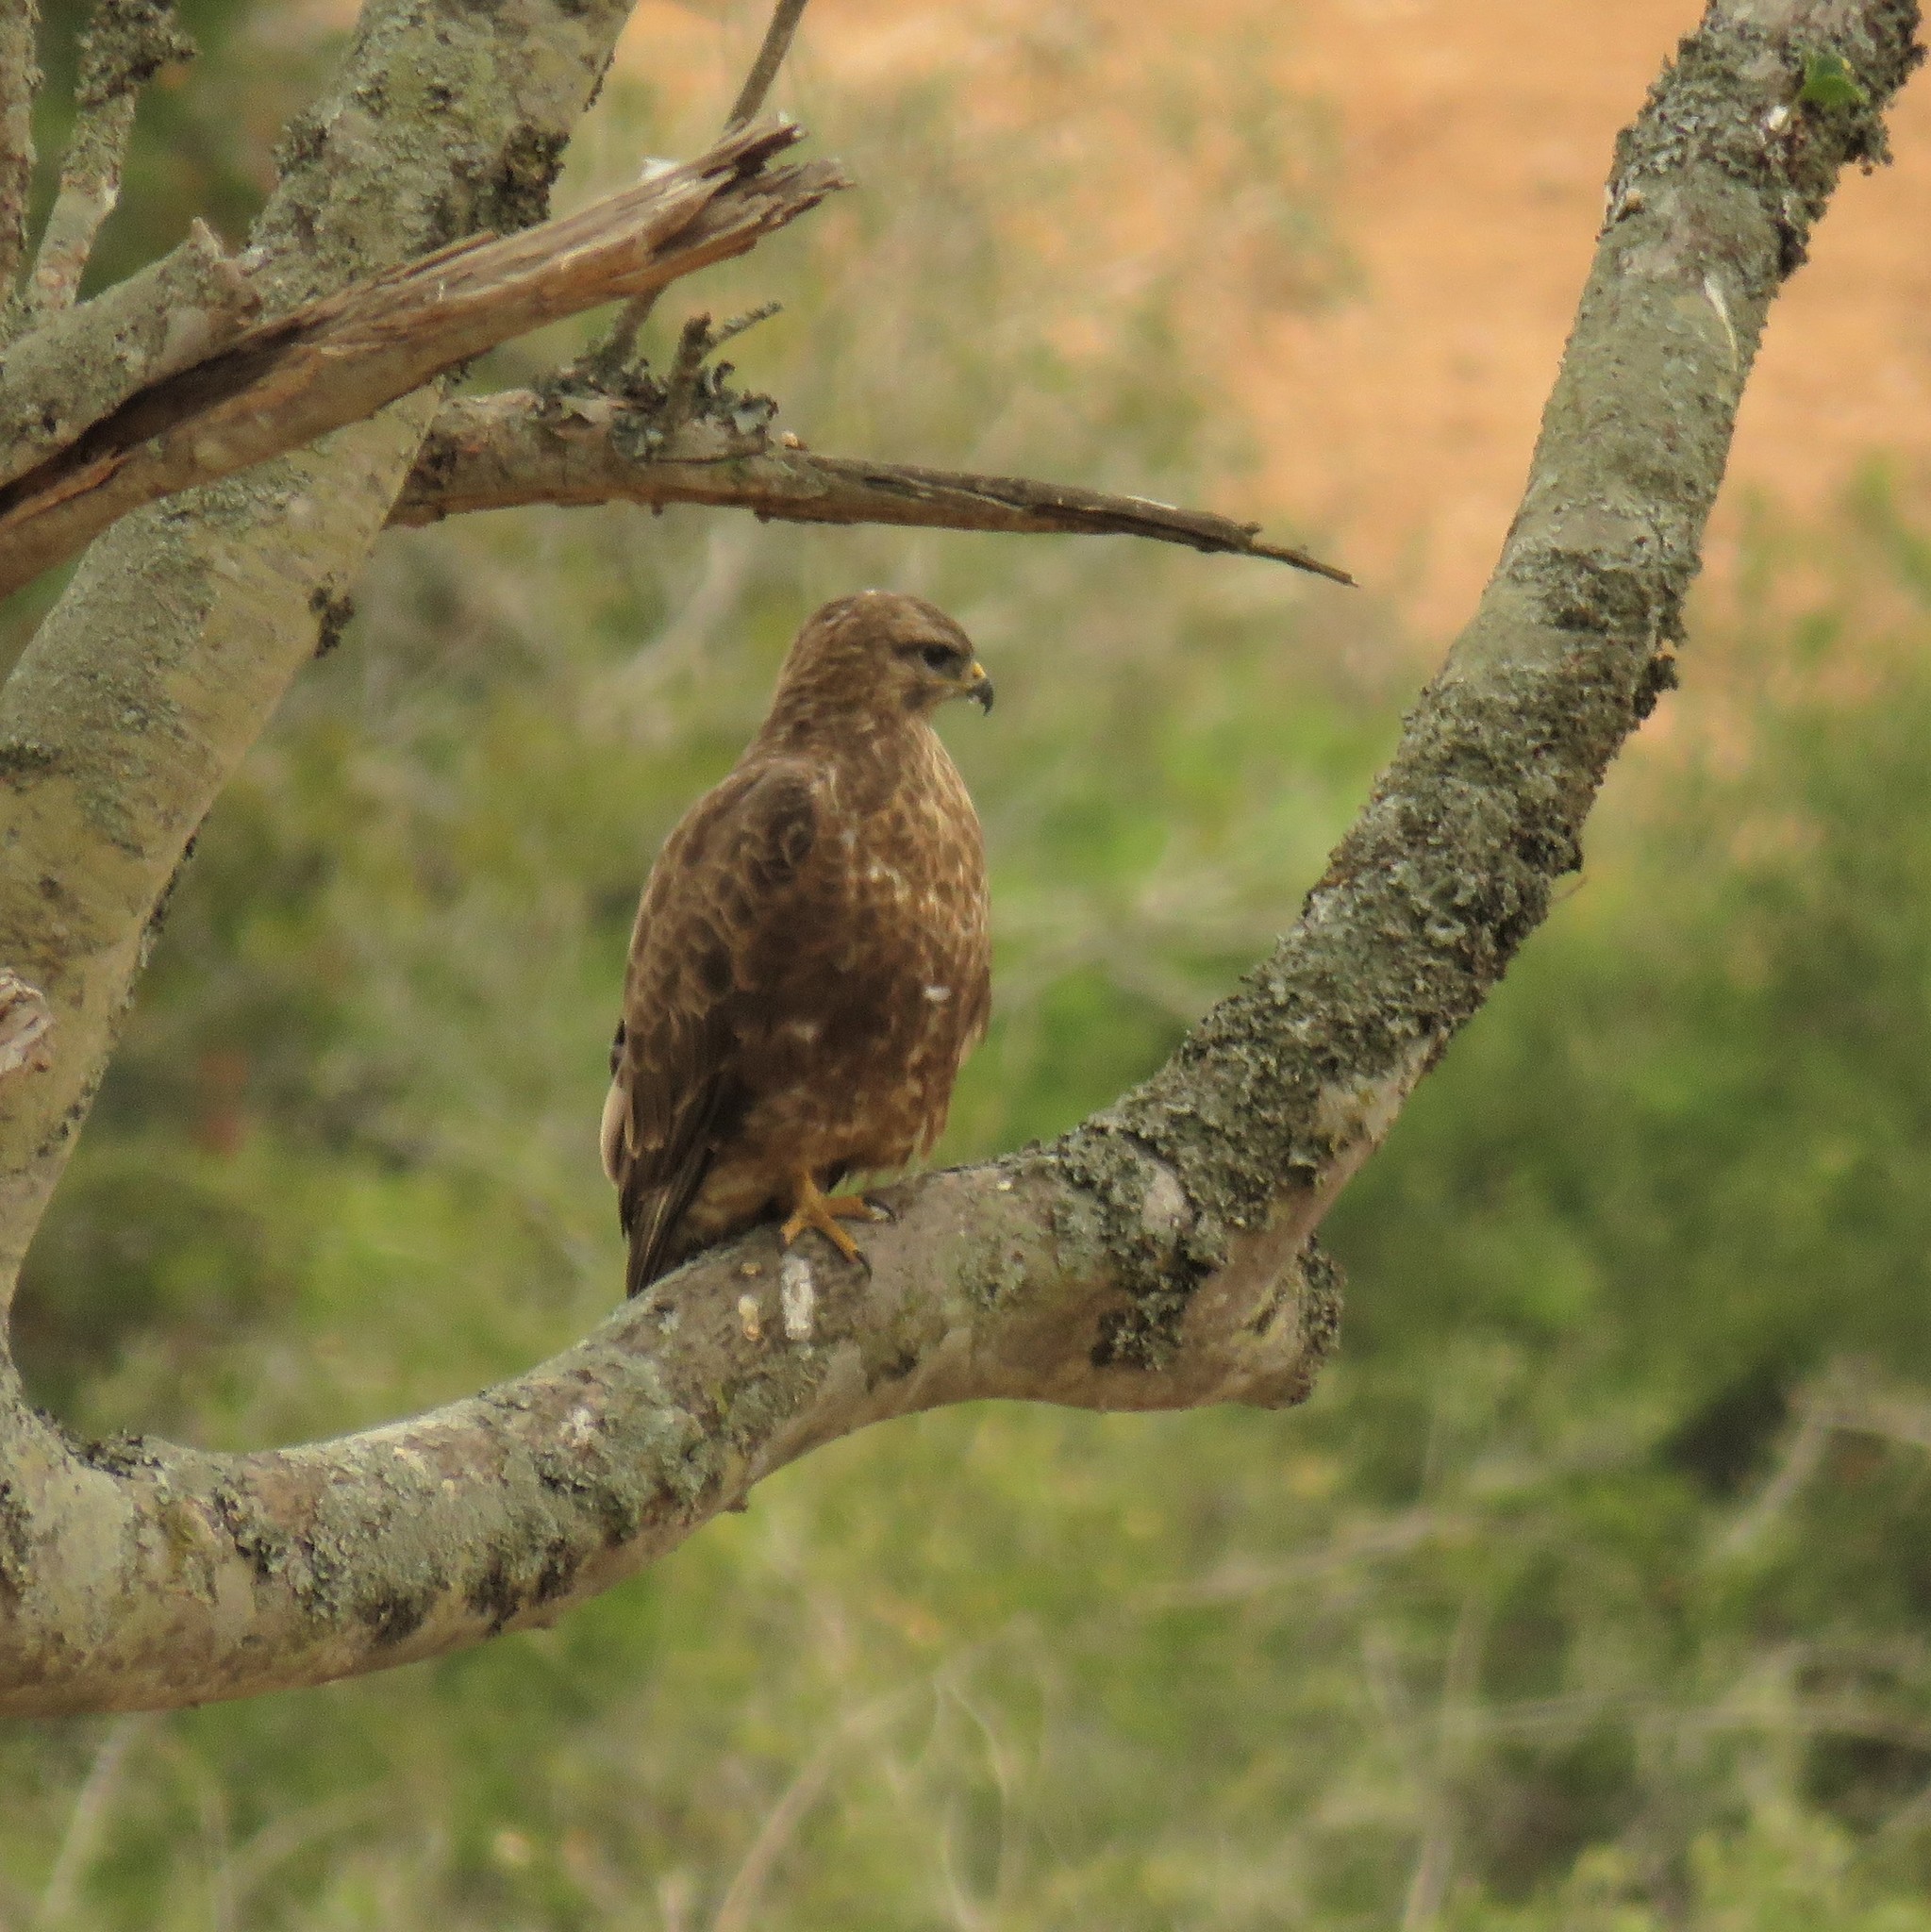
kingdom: Animalia
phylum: Chordata
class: Aves
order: Accipitriformes
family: Accipitridae
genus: Buteo
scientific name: Buteo buteo
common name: Common buzzard
